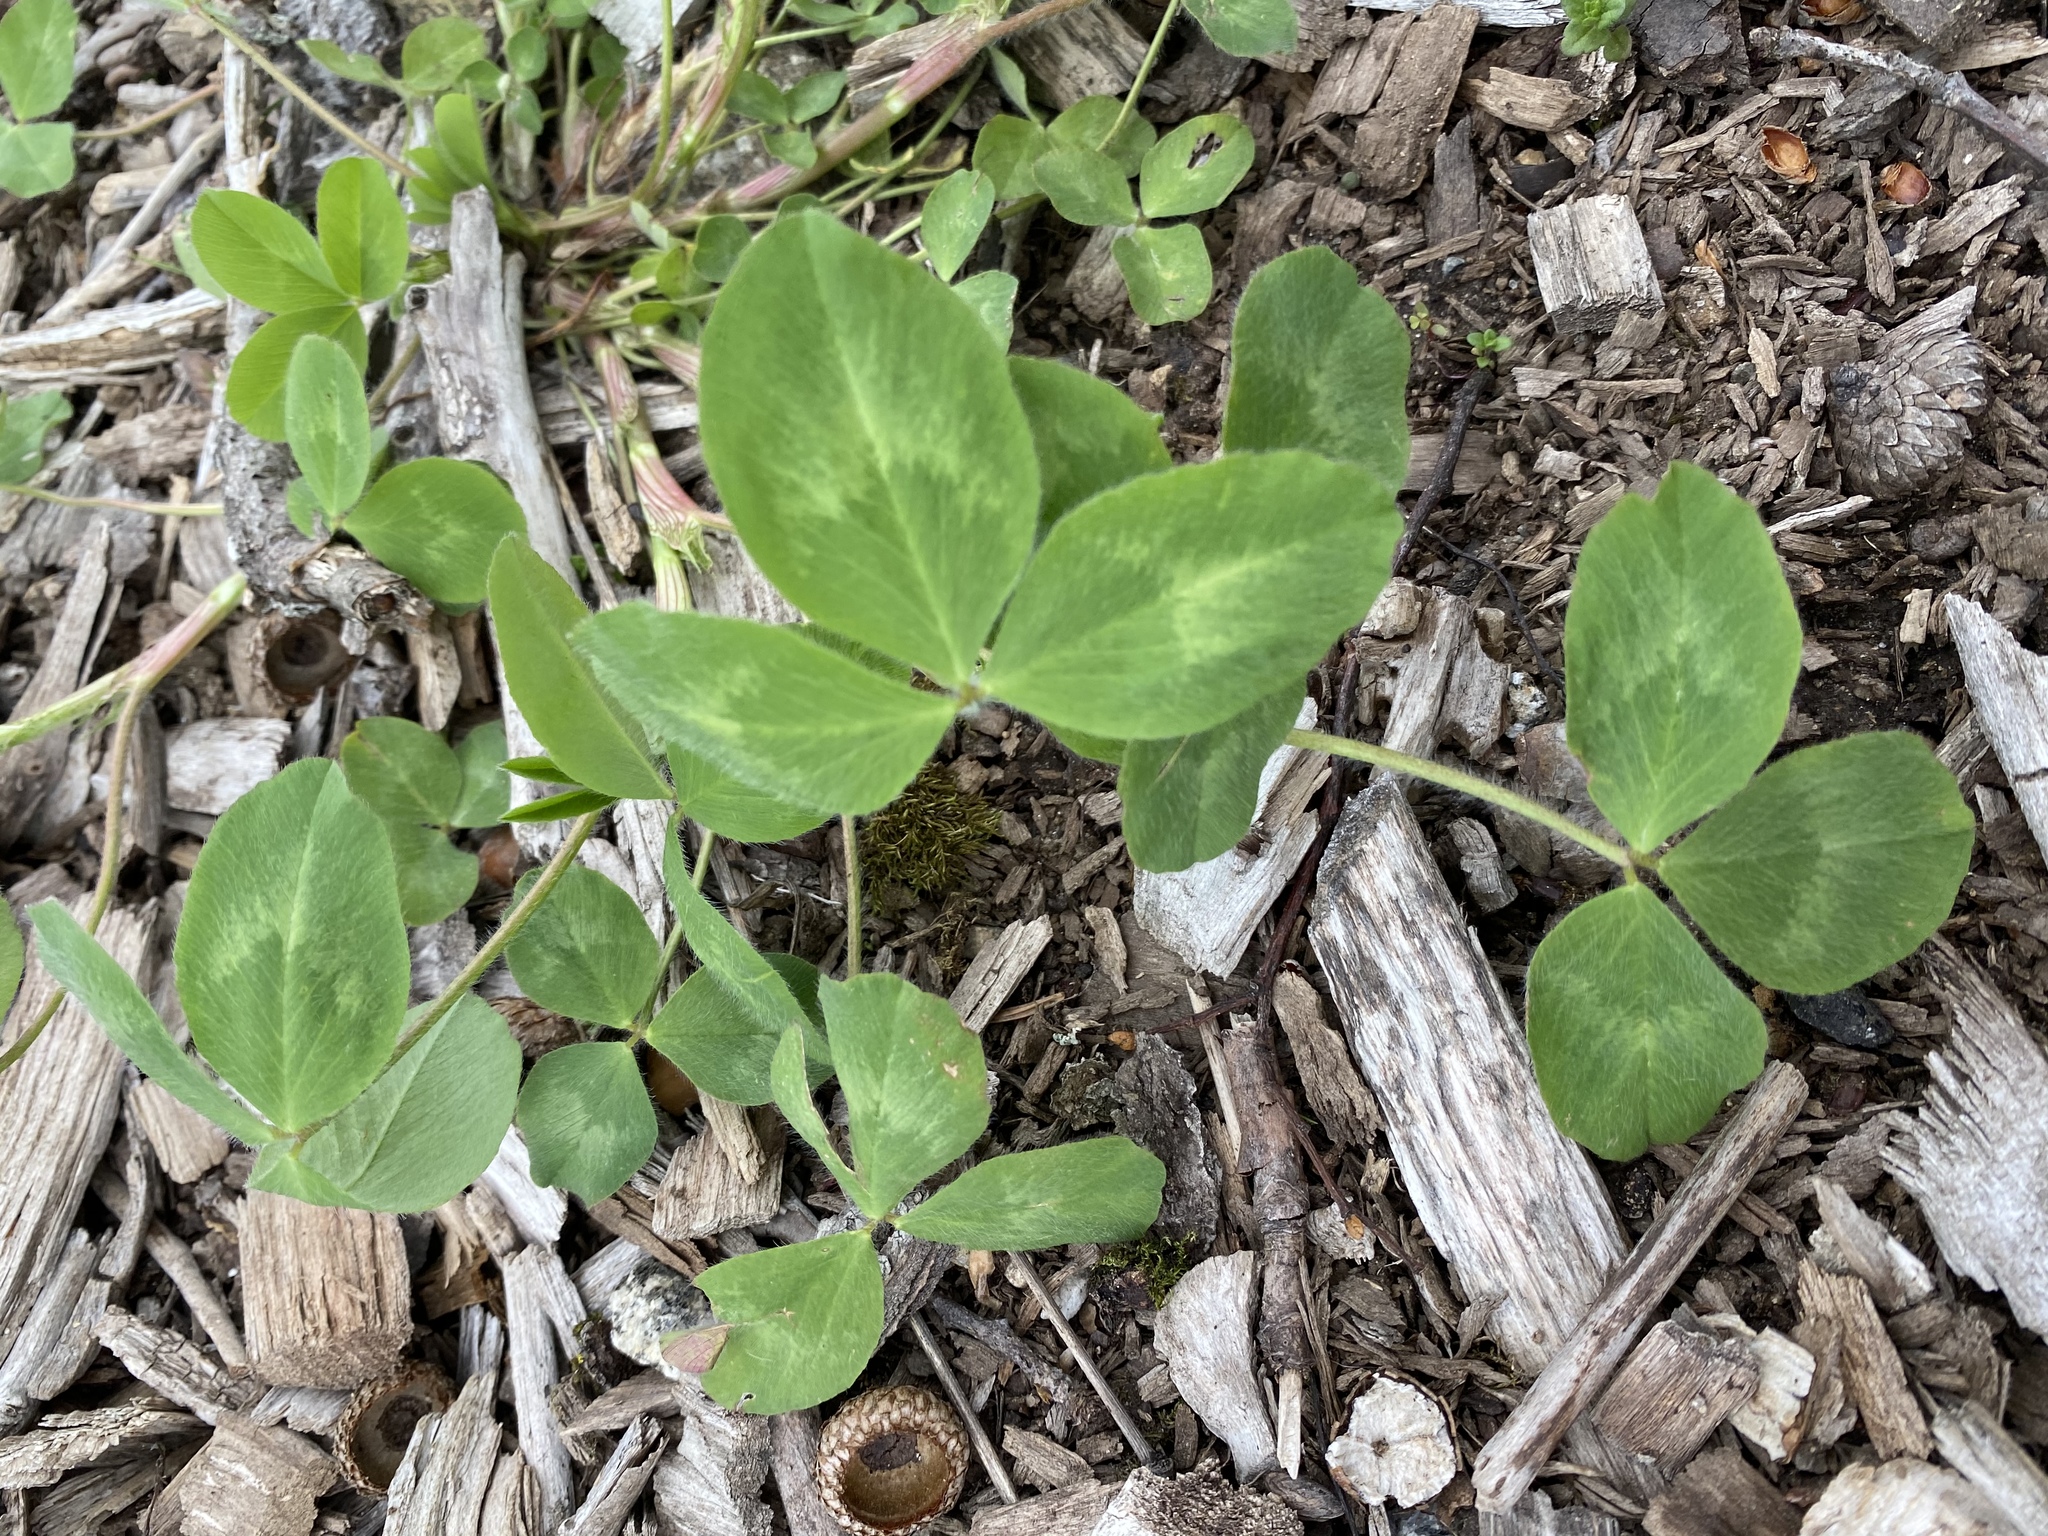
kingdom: Plantae
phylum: Tracheophyta
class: Magnoliopsida
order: Fabales
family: Fabaceae
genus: Trifolium
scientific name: Trifolium pratense
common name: Red clover
